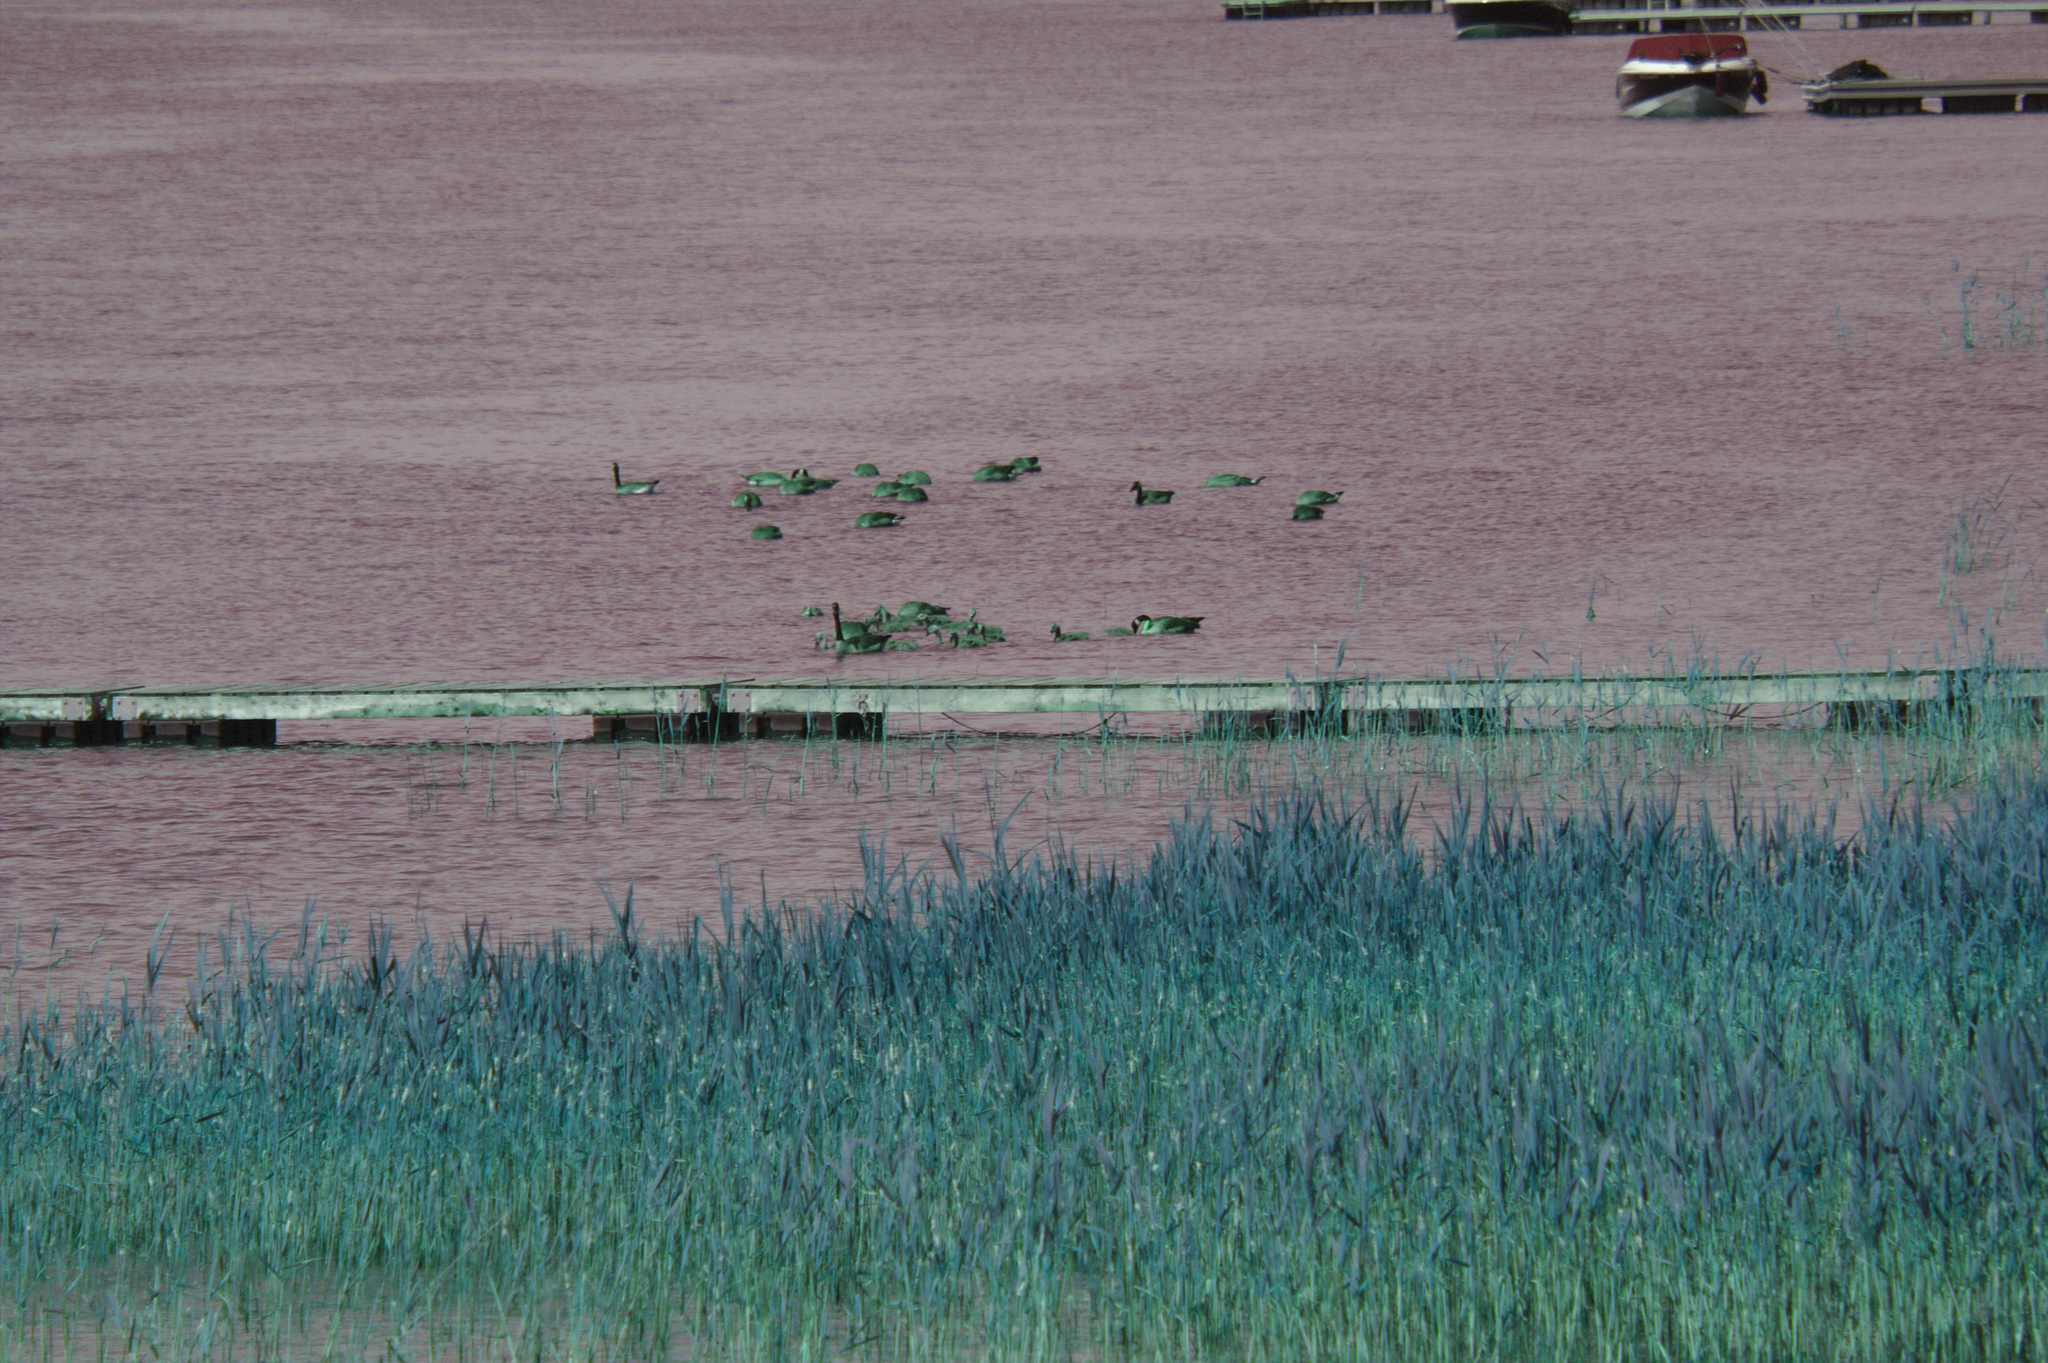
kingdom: Animalia
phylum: Chordata
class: Aves
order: Anseriformes
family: Anatidae
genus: Branta
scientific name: Branta canadensis
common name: Canada goose
